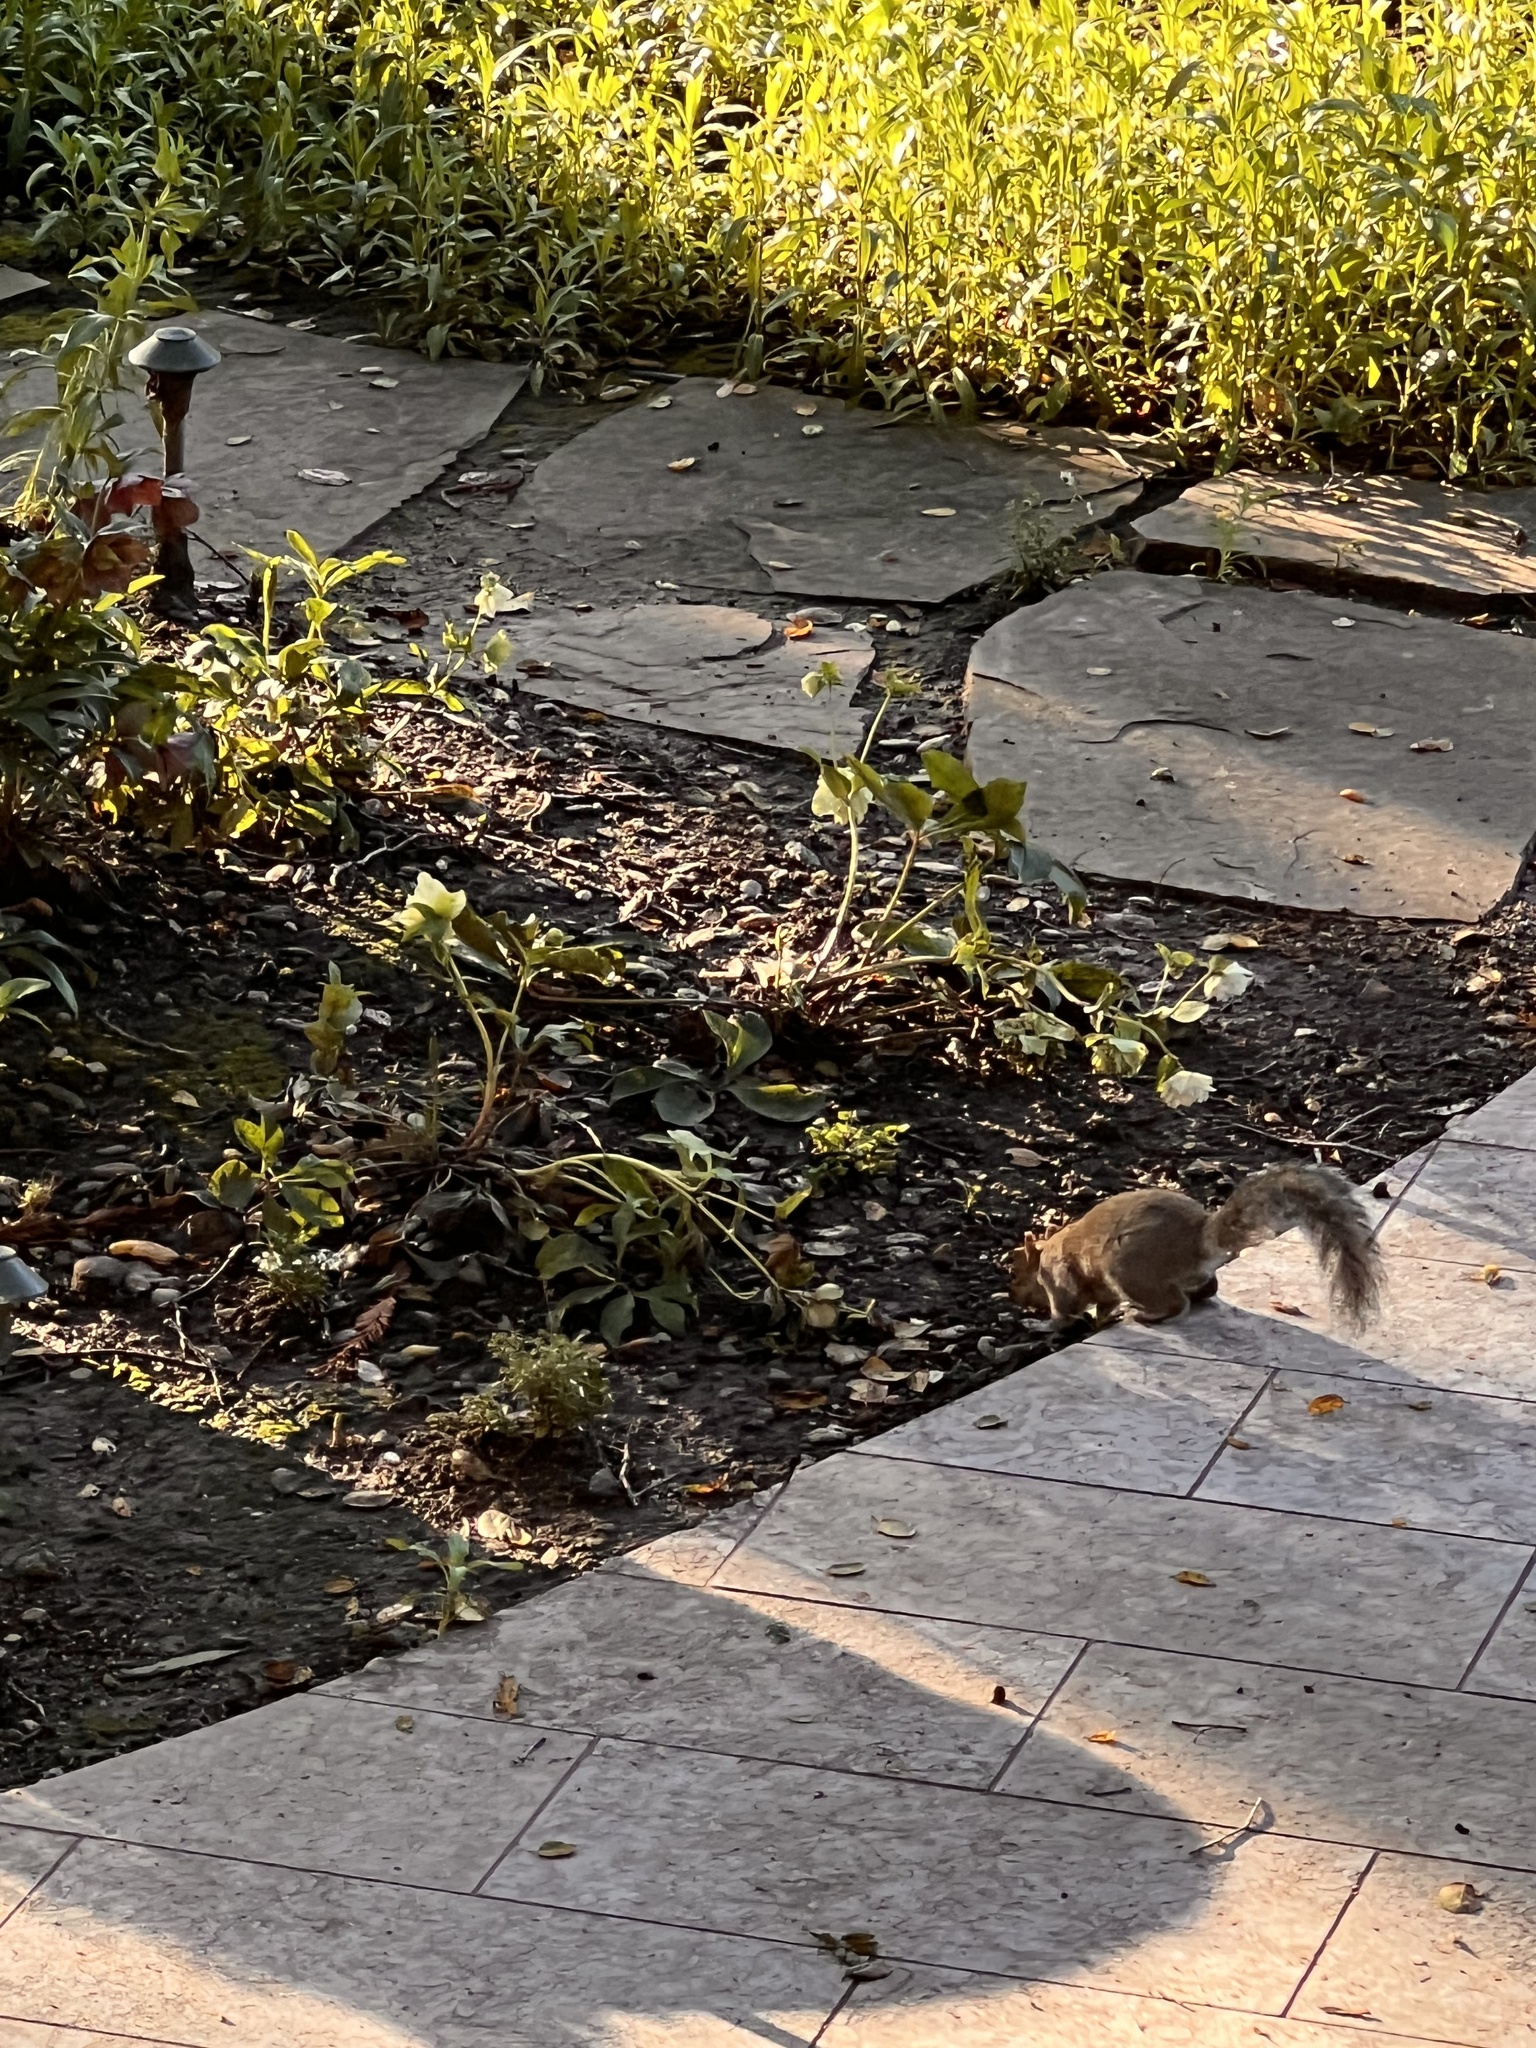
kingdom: Animalia
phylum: Chordata
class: Mammalia
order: Rodentia
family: Sciuridae
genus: Sciurus
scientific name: Sciurus carolinensis
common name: Eastern gray squirrel
